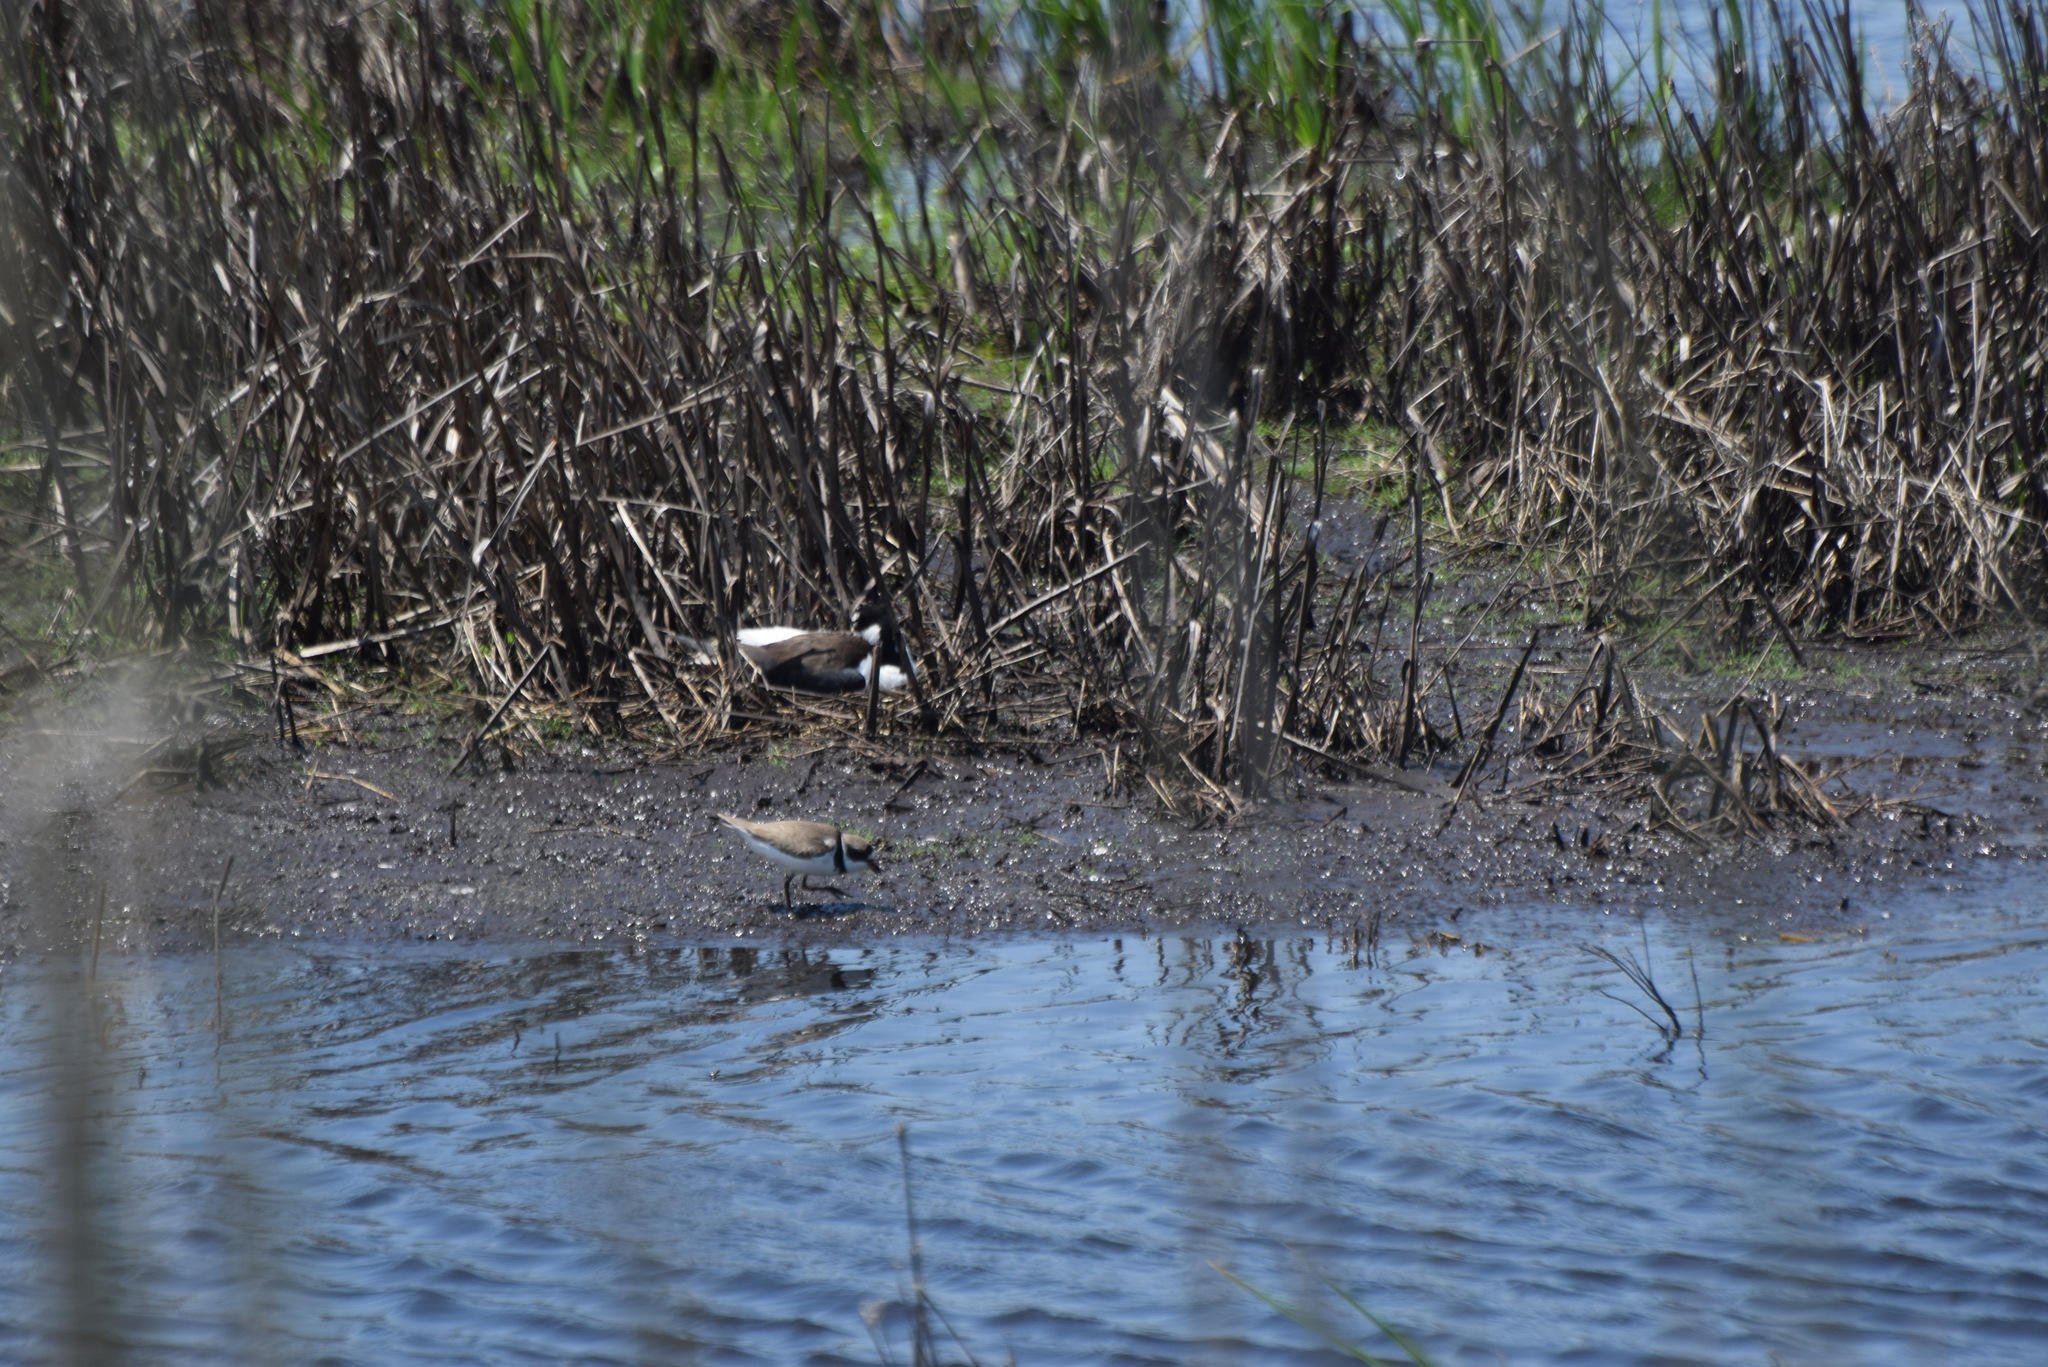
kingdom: Animalia
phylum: Chordata
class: Aves
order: Charadriiformes
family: Charadriidae
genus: Charadrius
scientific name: Charadrius semipalmatus
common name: Semipalmated plover
